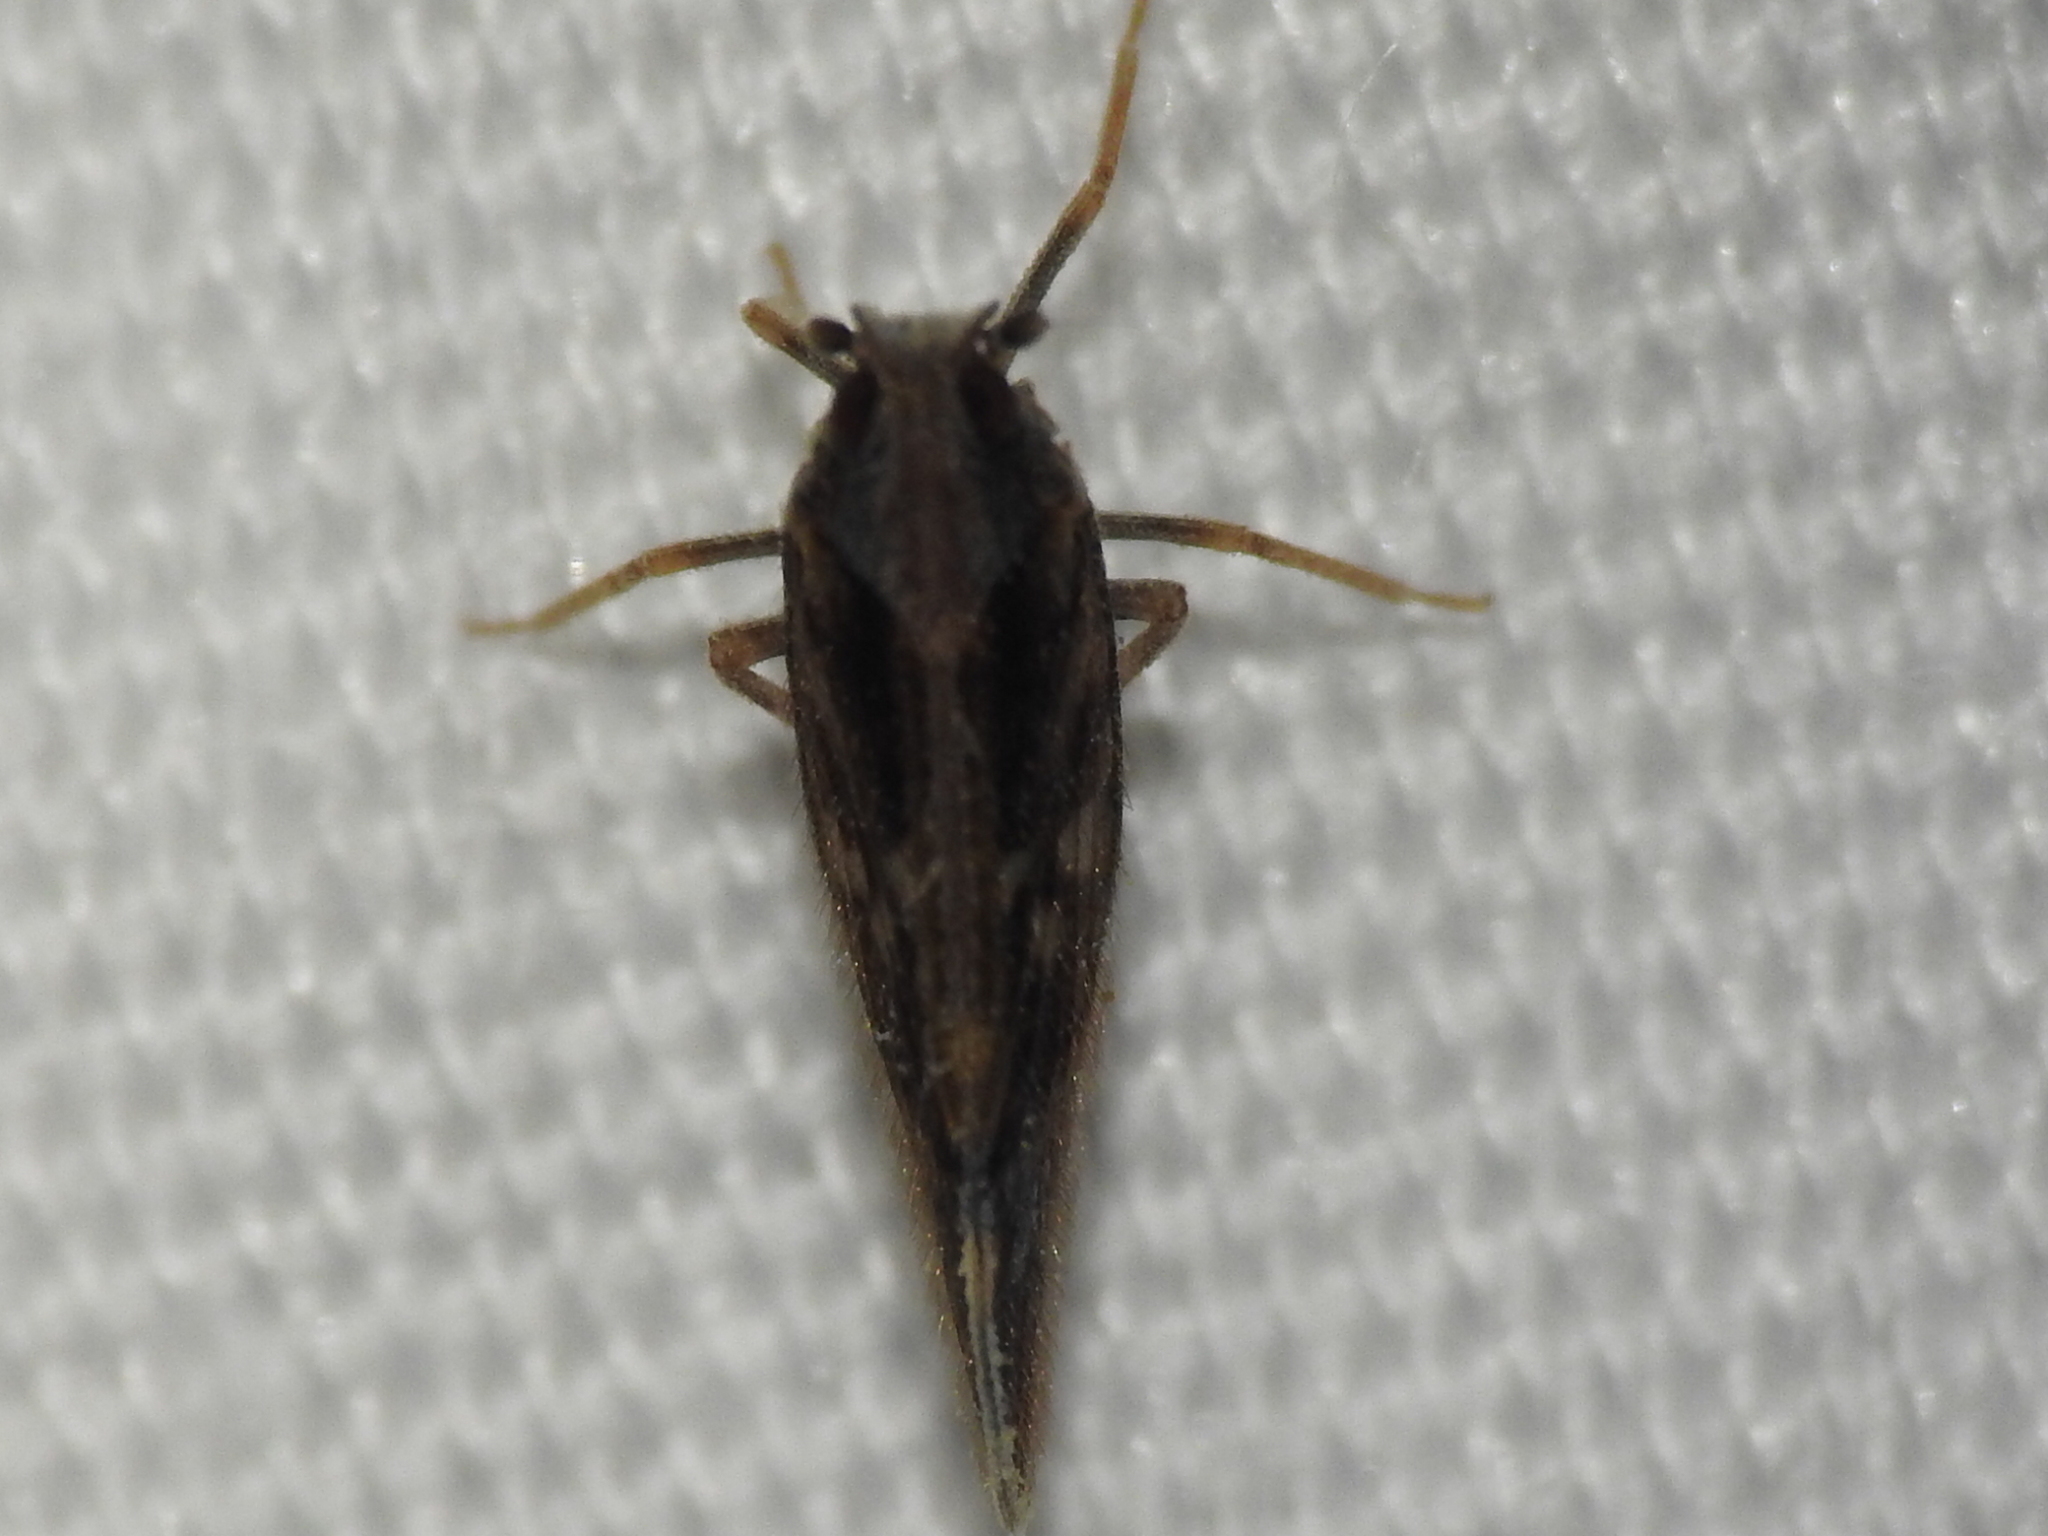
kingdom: Animalia
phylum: Arthropoda
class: Insecta
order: Hemiptera
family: Cixiidae
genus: Pintalia
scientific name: Pintalia vibex
